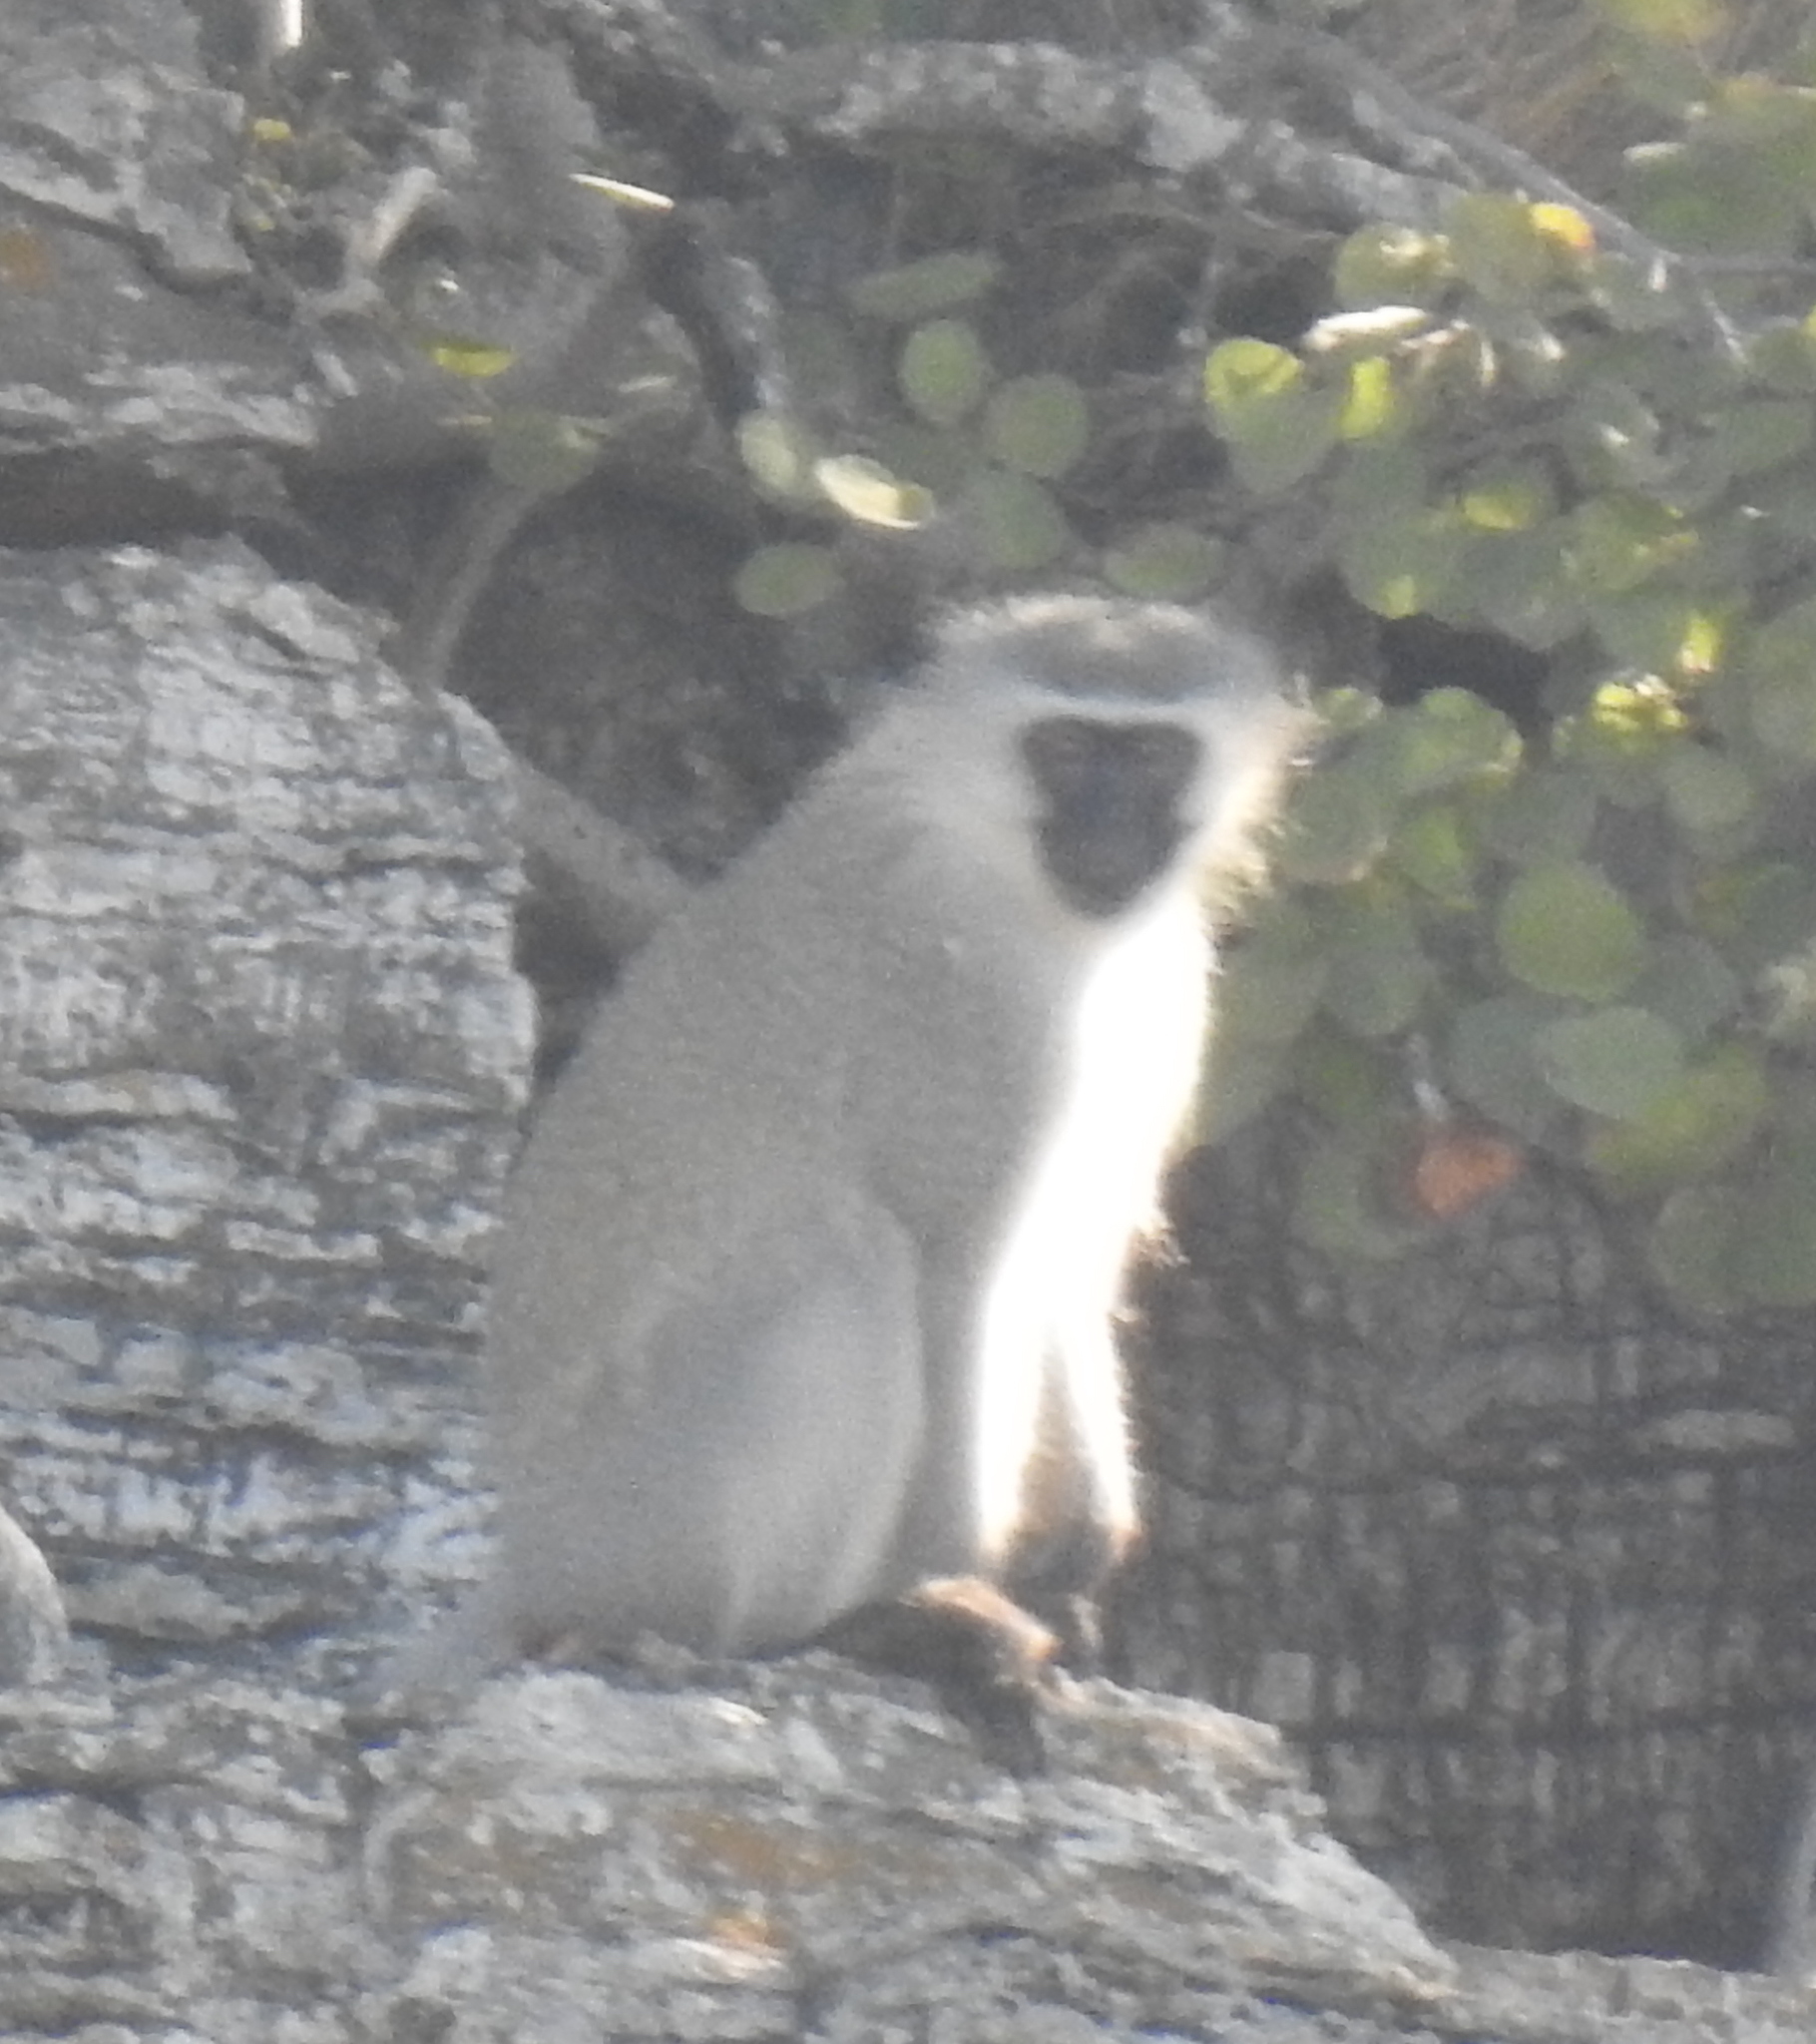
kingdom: Animalia
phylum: Chordata
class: Mammalia
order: Primates
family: Cercopithecidae
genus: Chlorocebus
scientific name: Chlorocebus pygerythrus
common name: Vervet monkey
